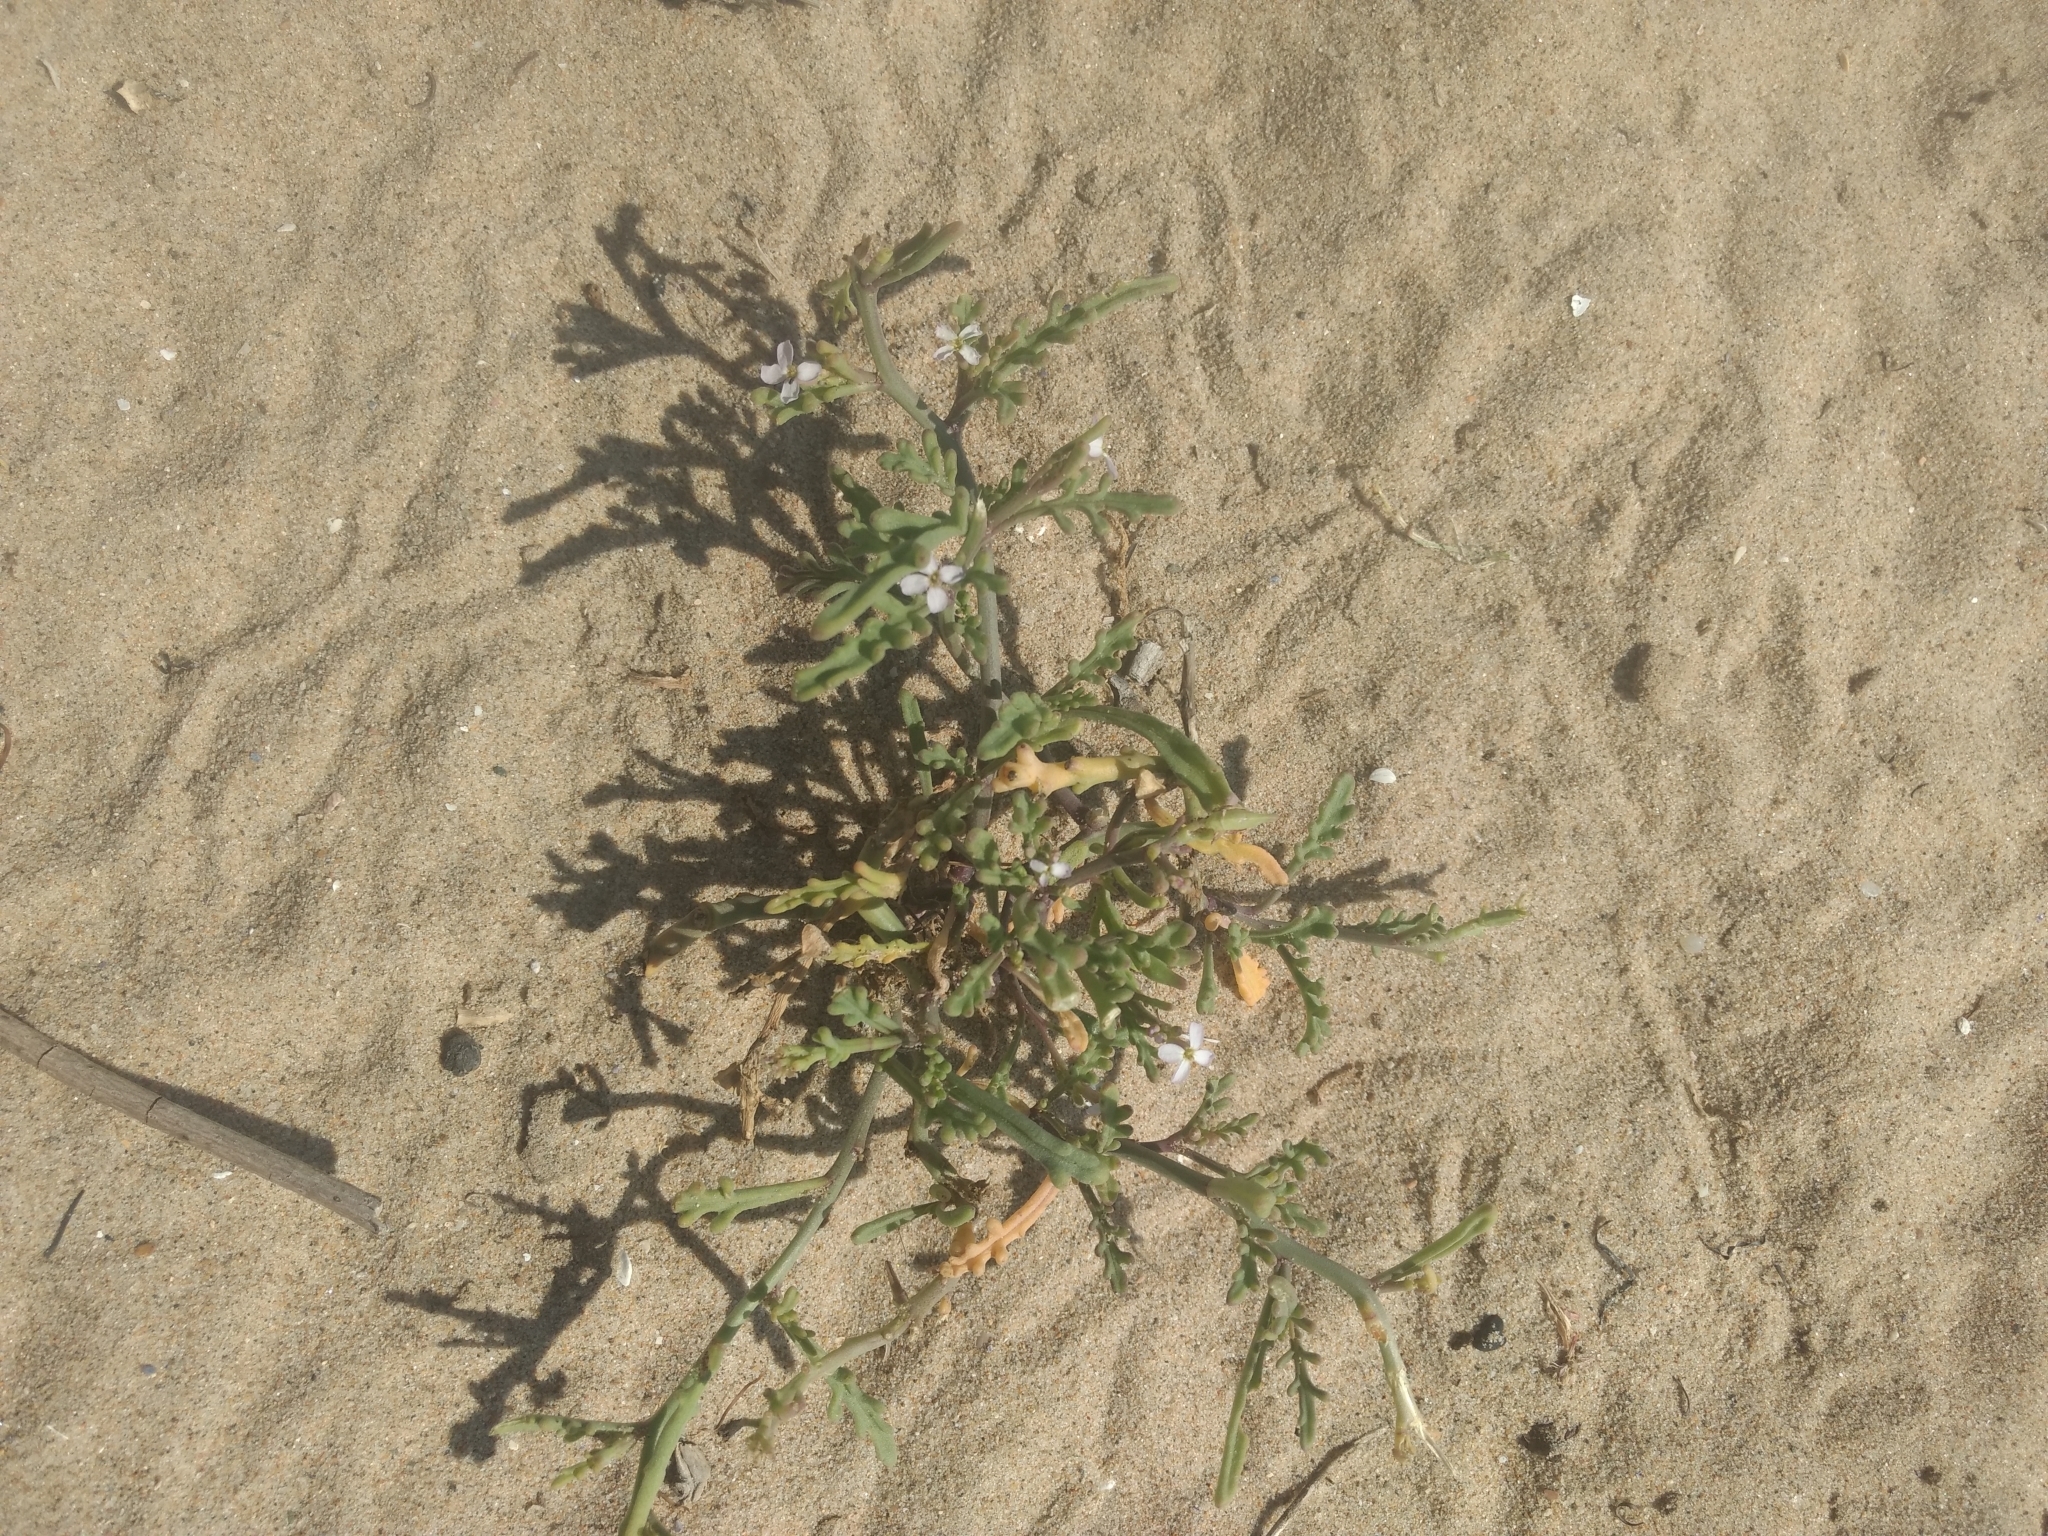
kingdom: Plantae
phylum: Tracheophyta
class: Magnoliopsida
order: Brassicales
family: Brassicaceae
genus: Cakile
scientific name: Cakile maritima
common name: Sea rocket
